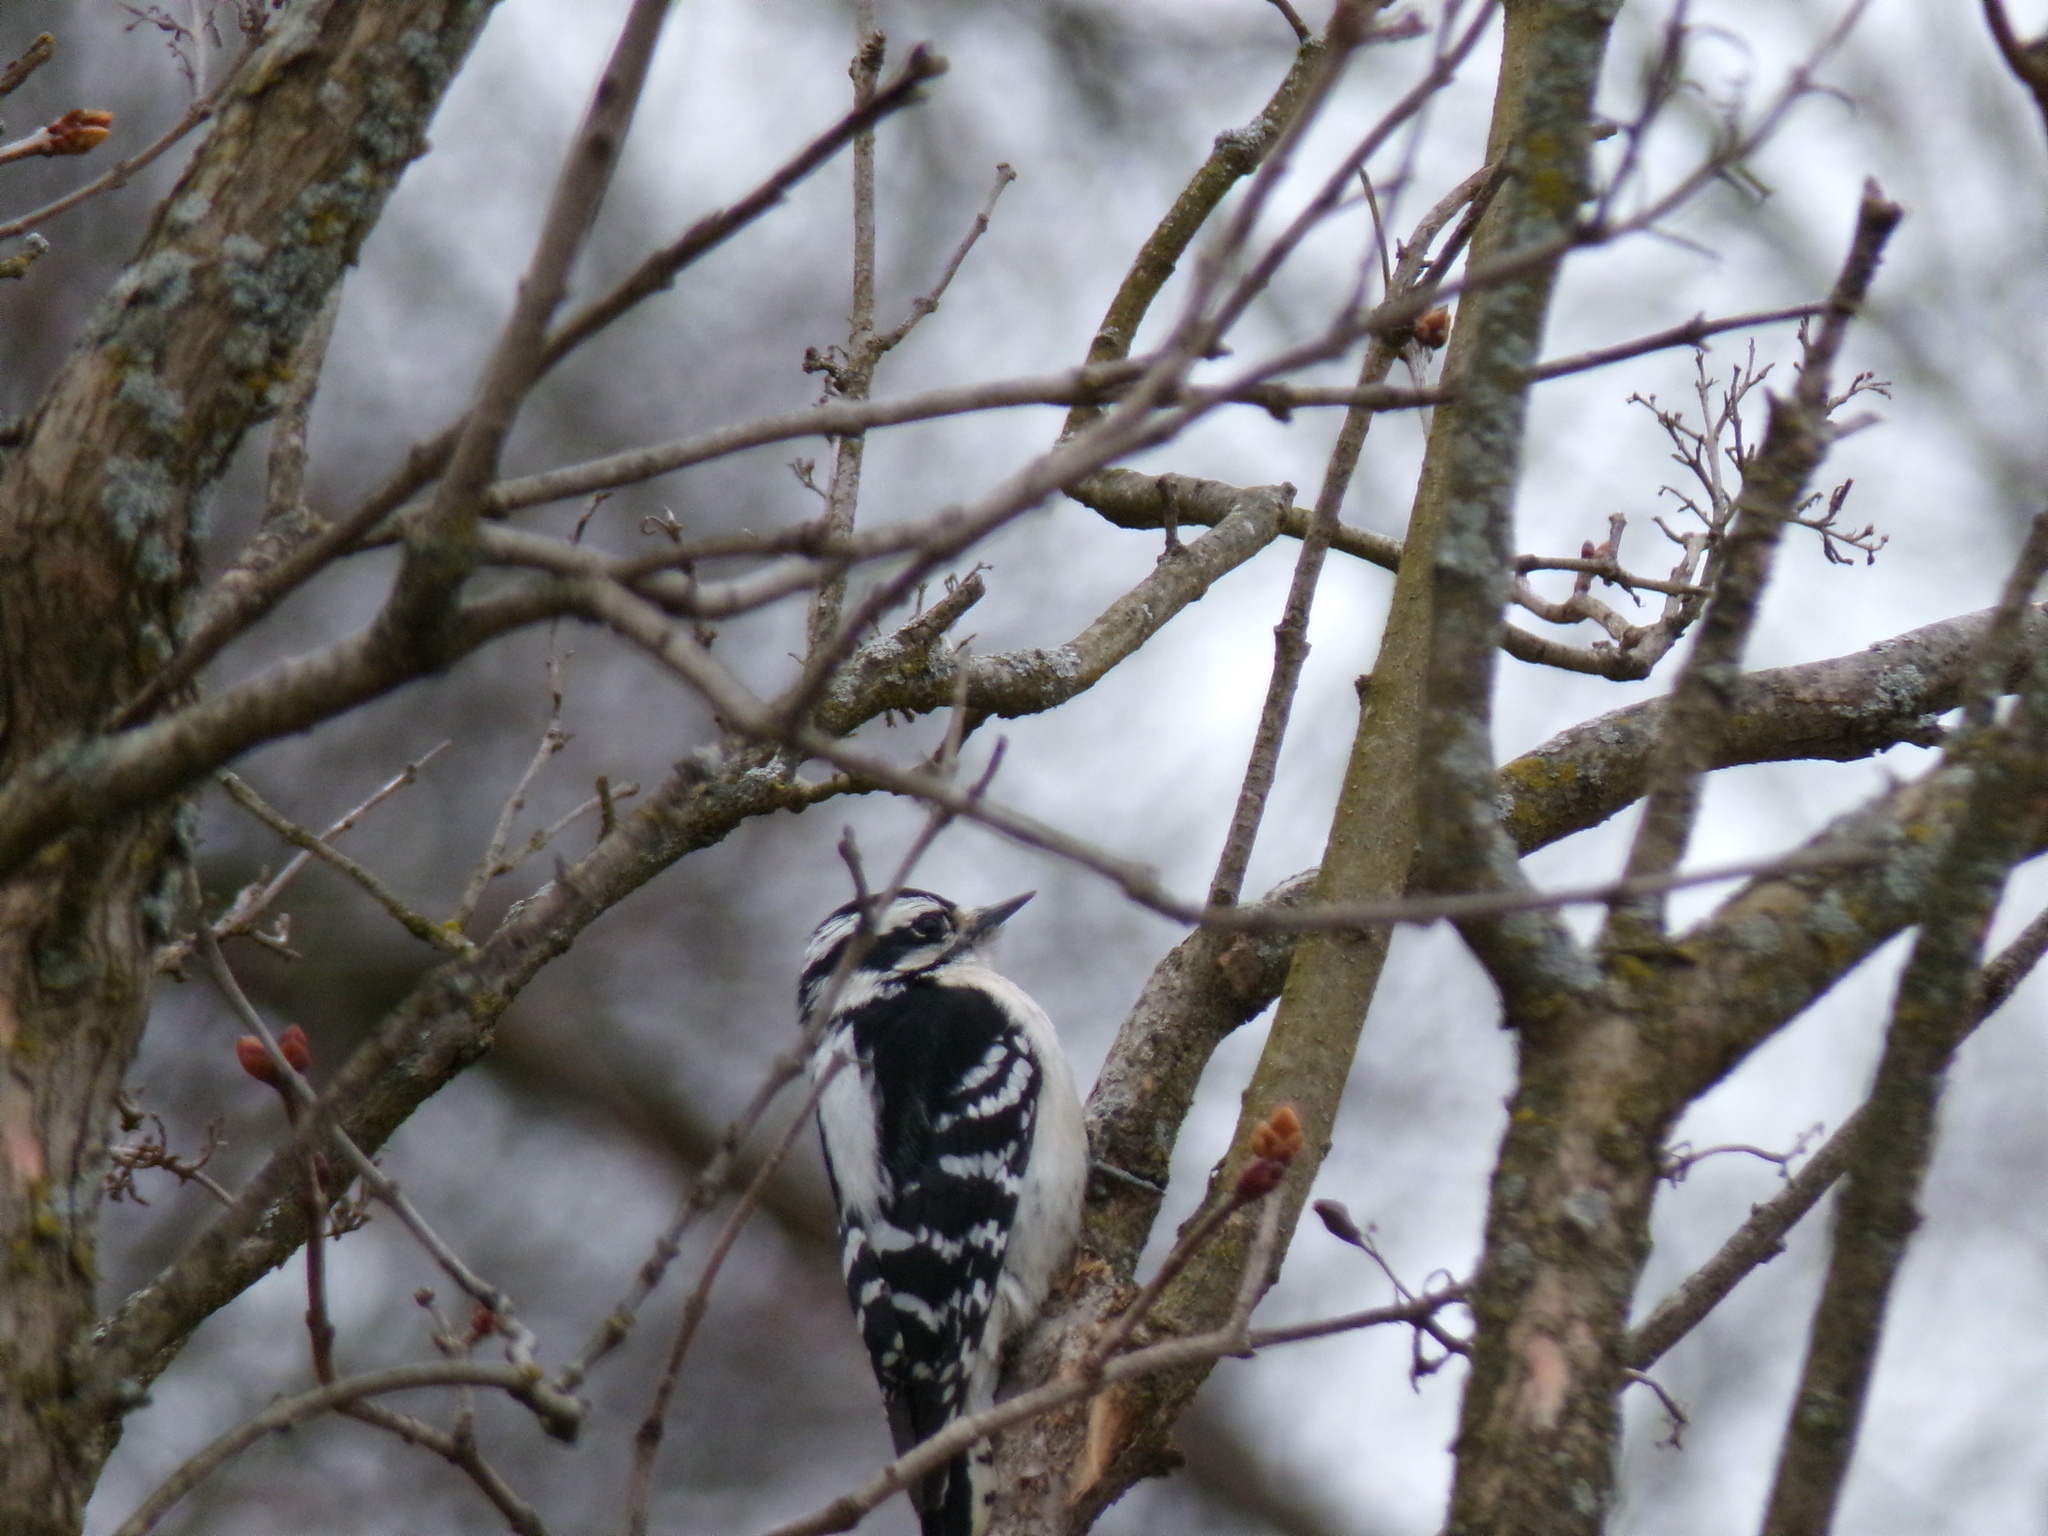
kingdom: Animalia
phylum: Chordata
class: Aves
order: Piciformes
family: Picidae
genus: Dryobates
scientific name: Dryobates pubescens
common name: Downy woodpecker
